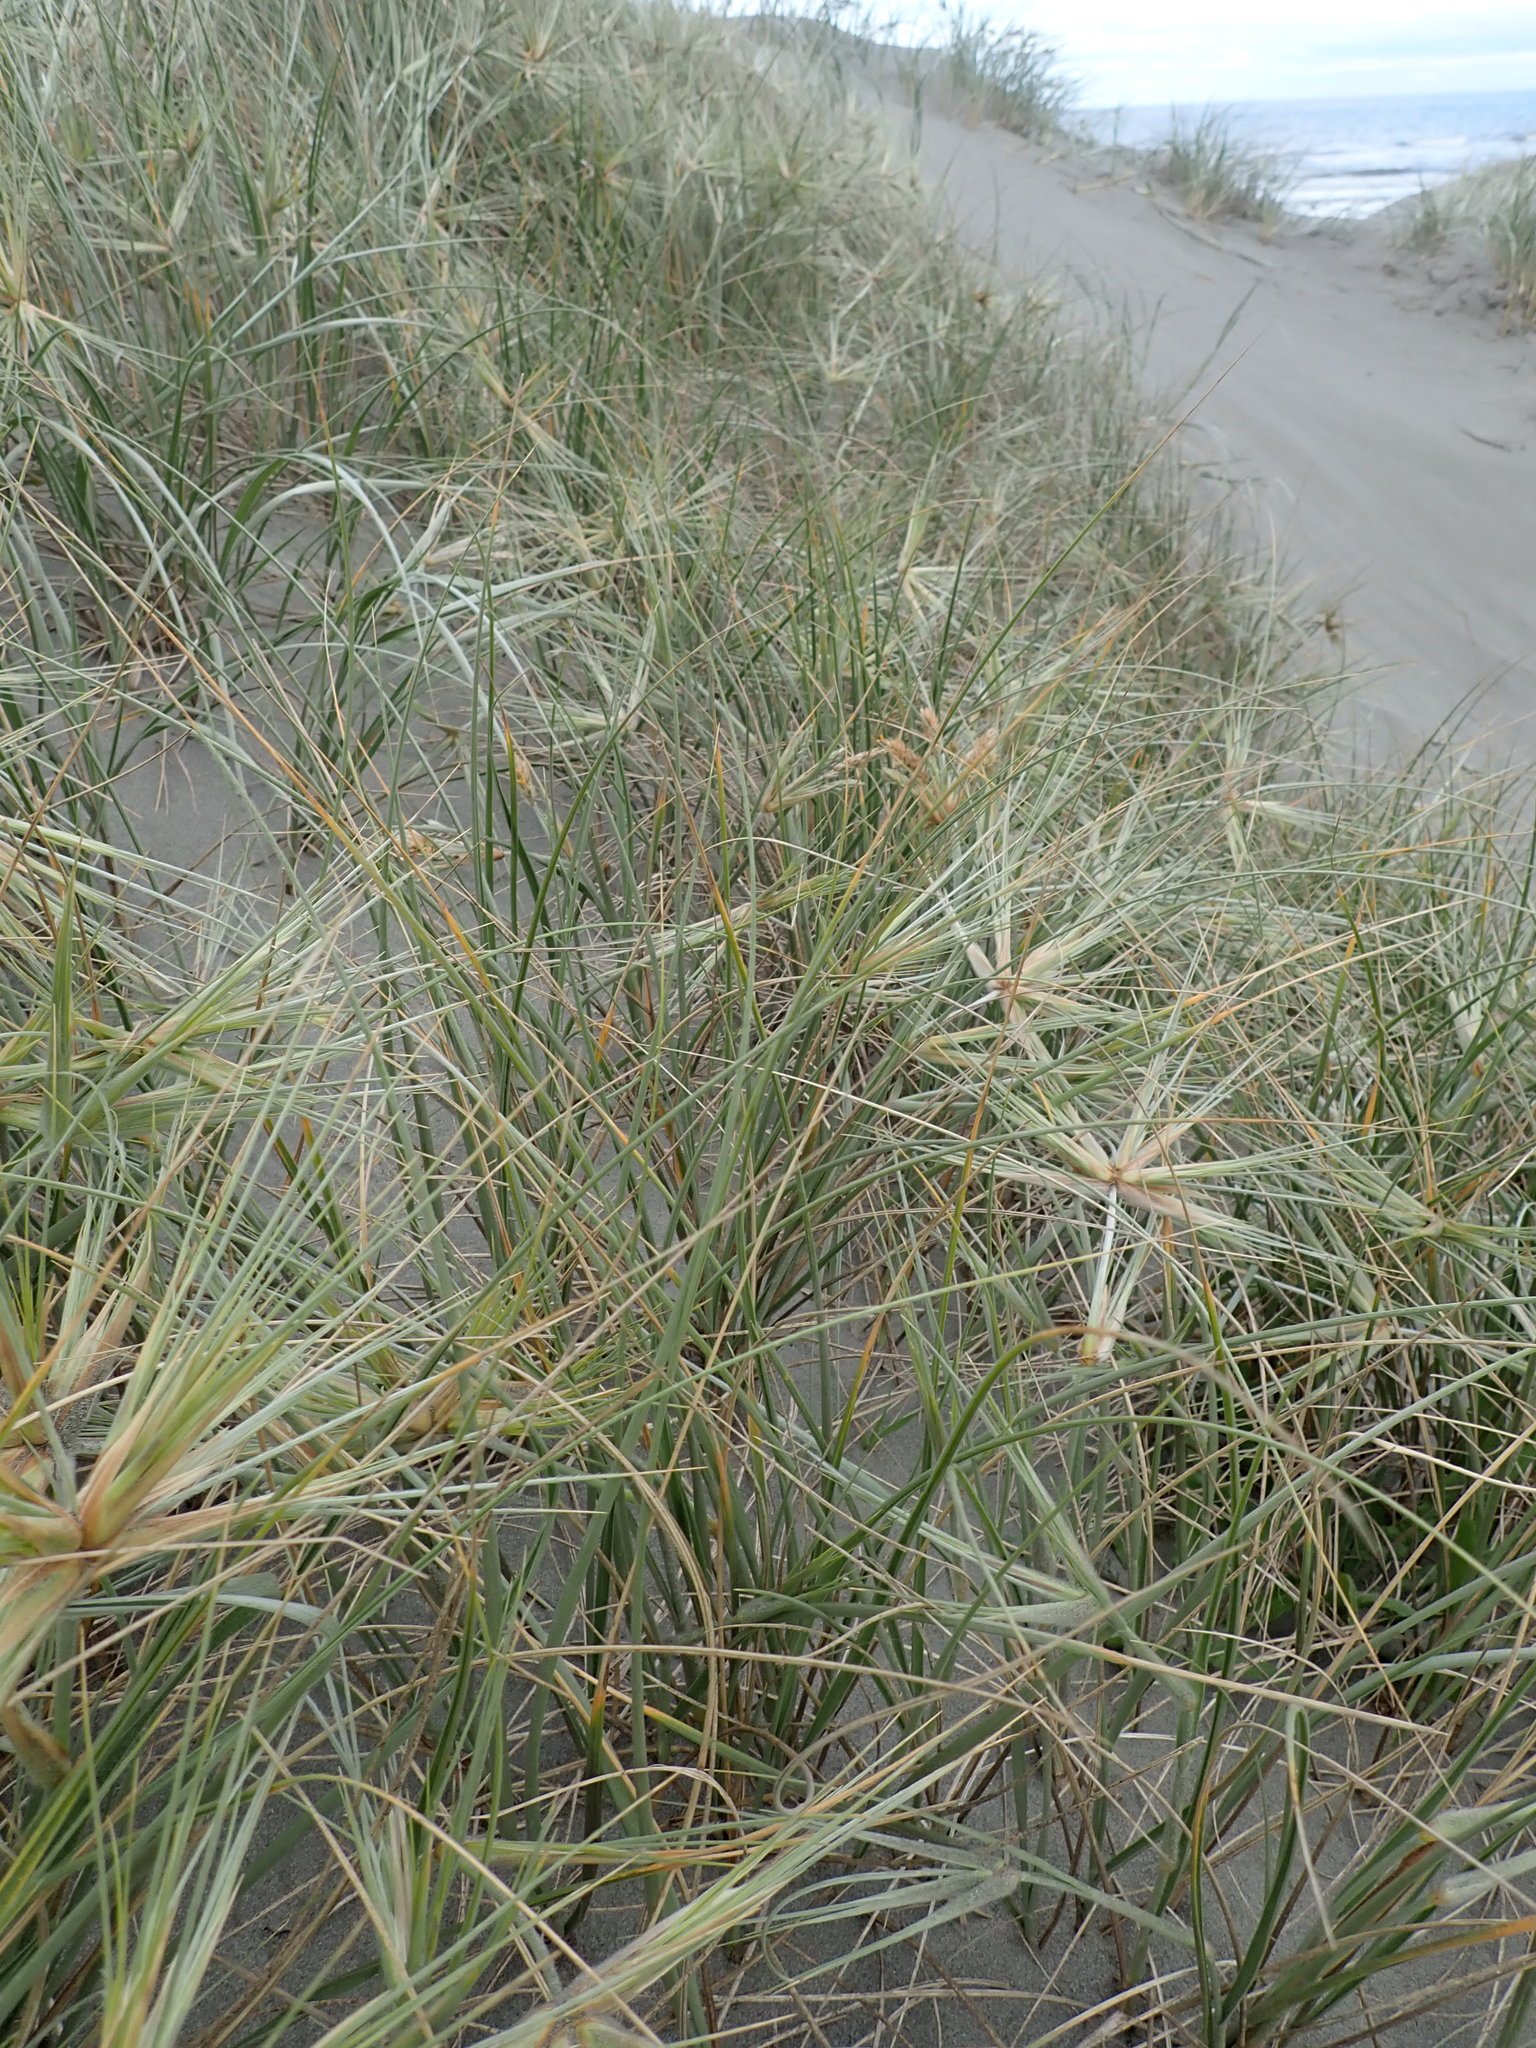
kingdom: Plantae
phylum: Tracheophyta
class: Liliopsida
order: Poales
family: Poaceae
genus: Spinifex
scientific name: Spinifex sericeus
